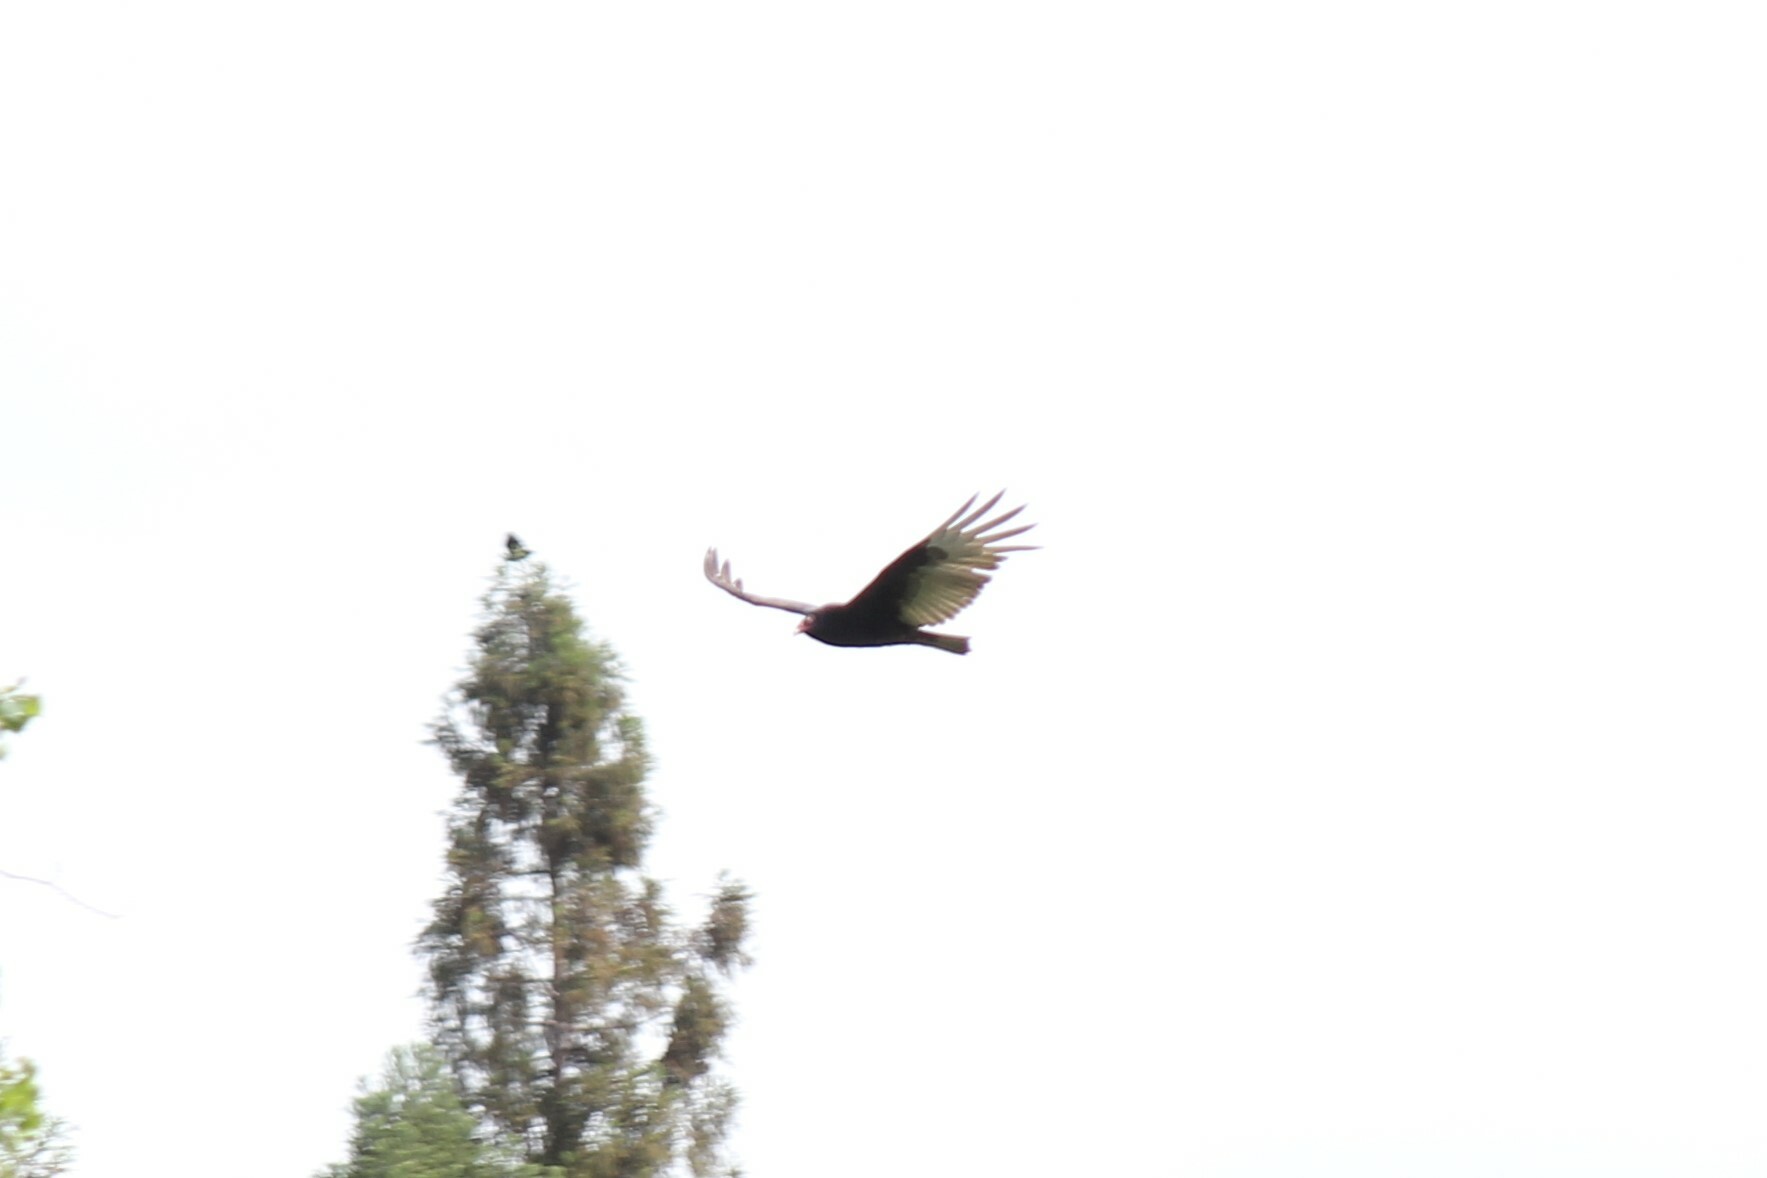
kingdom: Animalia
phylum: Chordata
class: Aves
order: Accipitriformes
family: Cathartidae
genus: Cathartes
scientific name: Cathartes aura
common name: Turkey vulture
